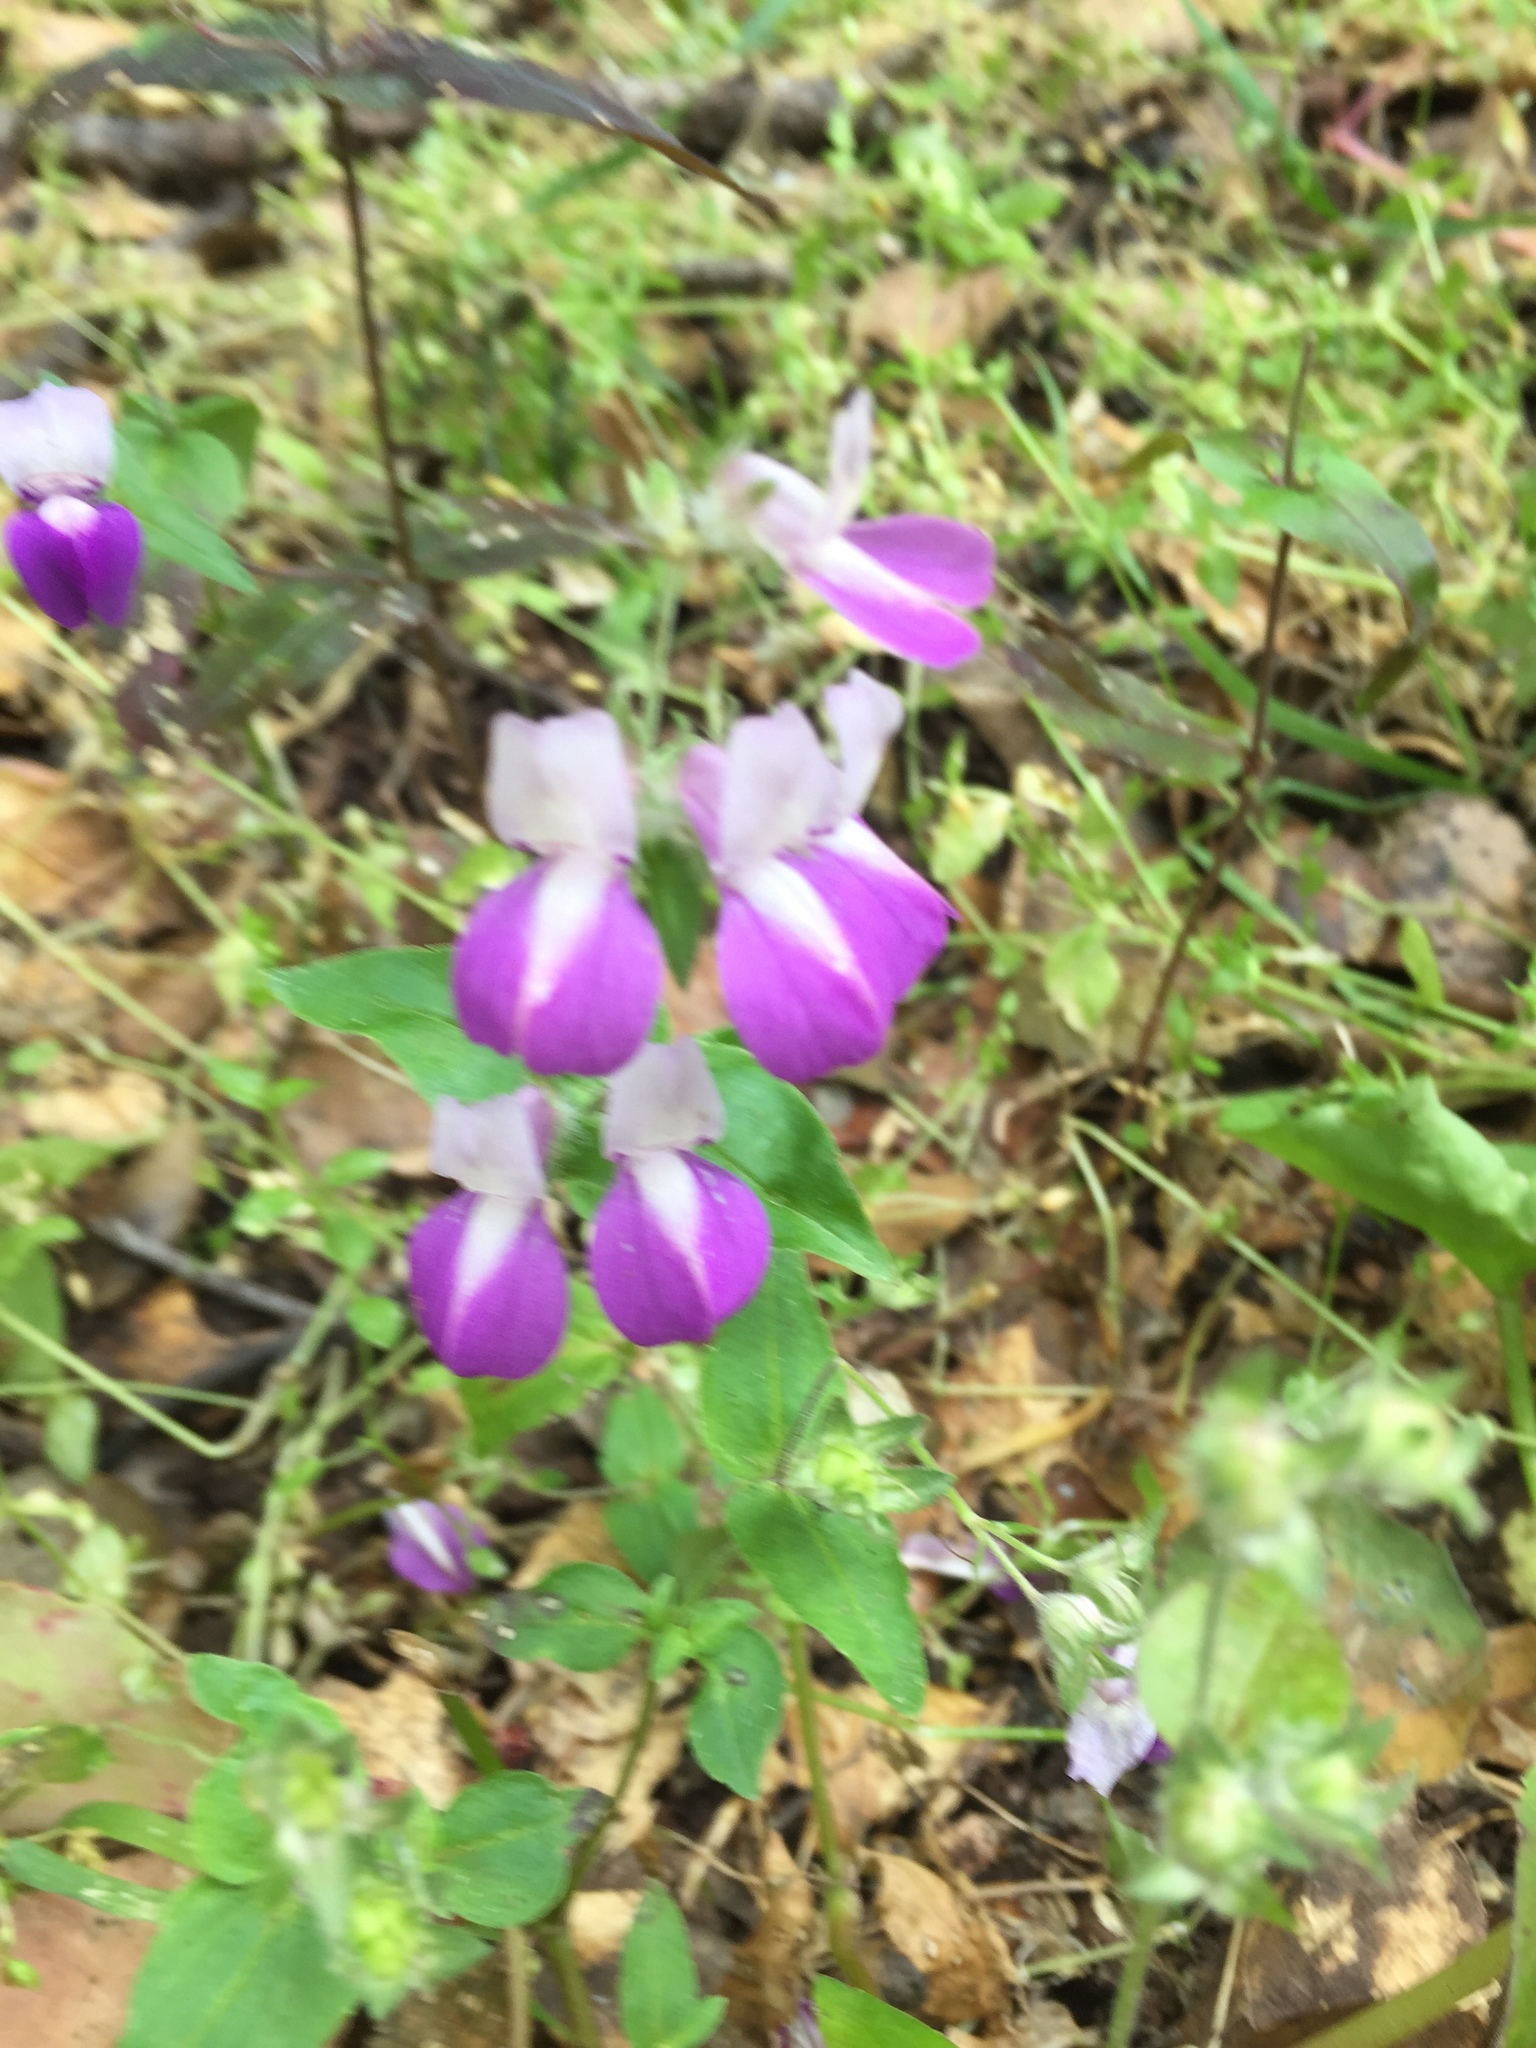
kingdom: Plantae
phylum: Tracheophyta
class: Magnoliopsida
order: Lamiales
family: Plantaginaceae
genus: Collinsia
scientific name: Collinsia heterophylla
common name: Chinese-houses
